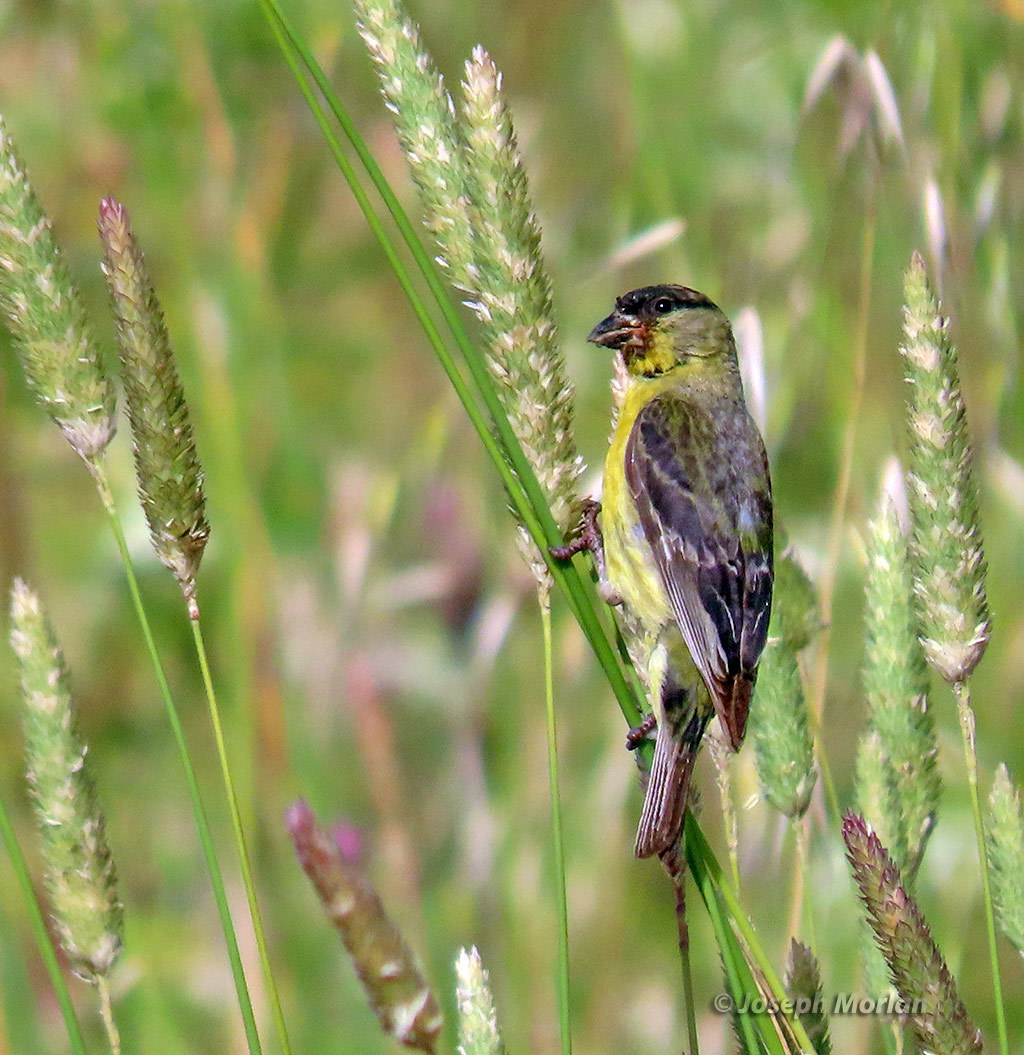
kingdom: Animalia
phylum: Chordata
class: Aves
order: Passeriformes
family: Fringillidae
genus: Spinus
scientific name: Spinus psaltria
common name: Lesser goldfinch
